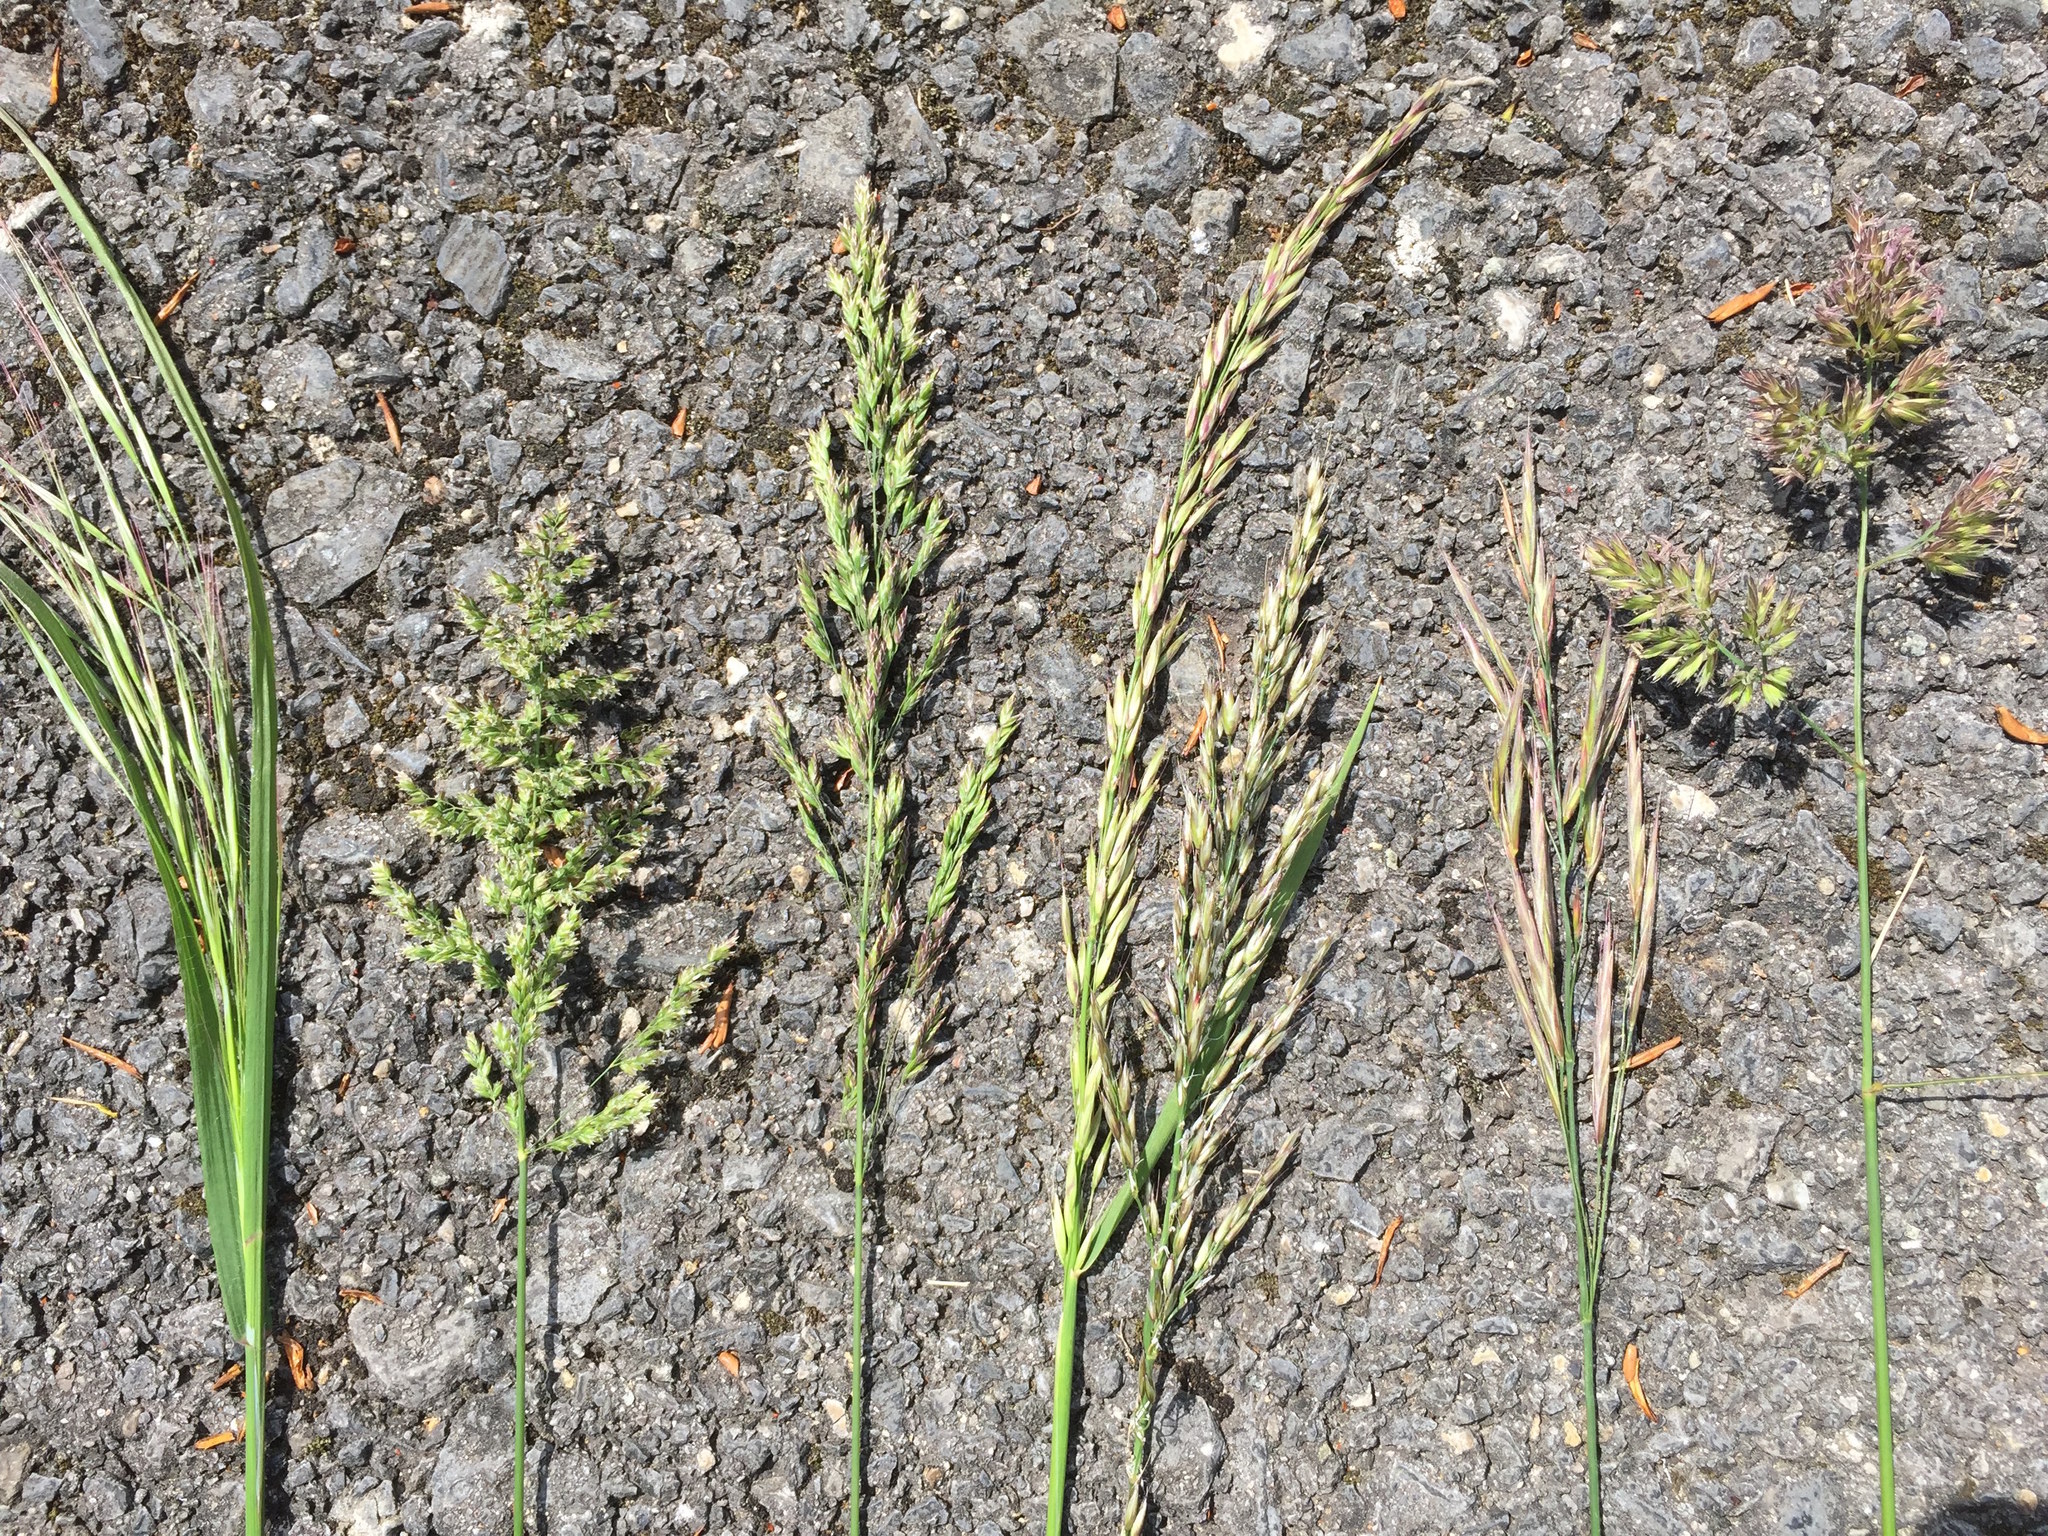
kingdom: Plantae
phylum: Tracheophyta
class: Liliopsida
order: Poales
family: Poaceae
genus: Bromus
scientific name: Bromus sterilis
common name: Poverty brome
